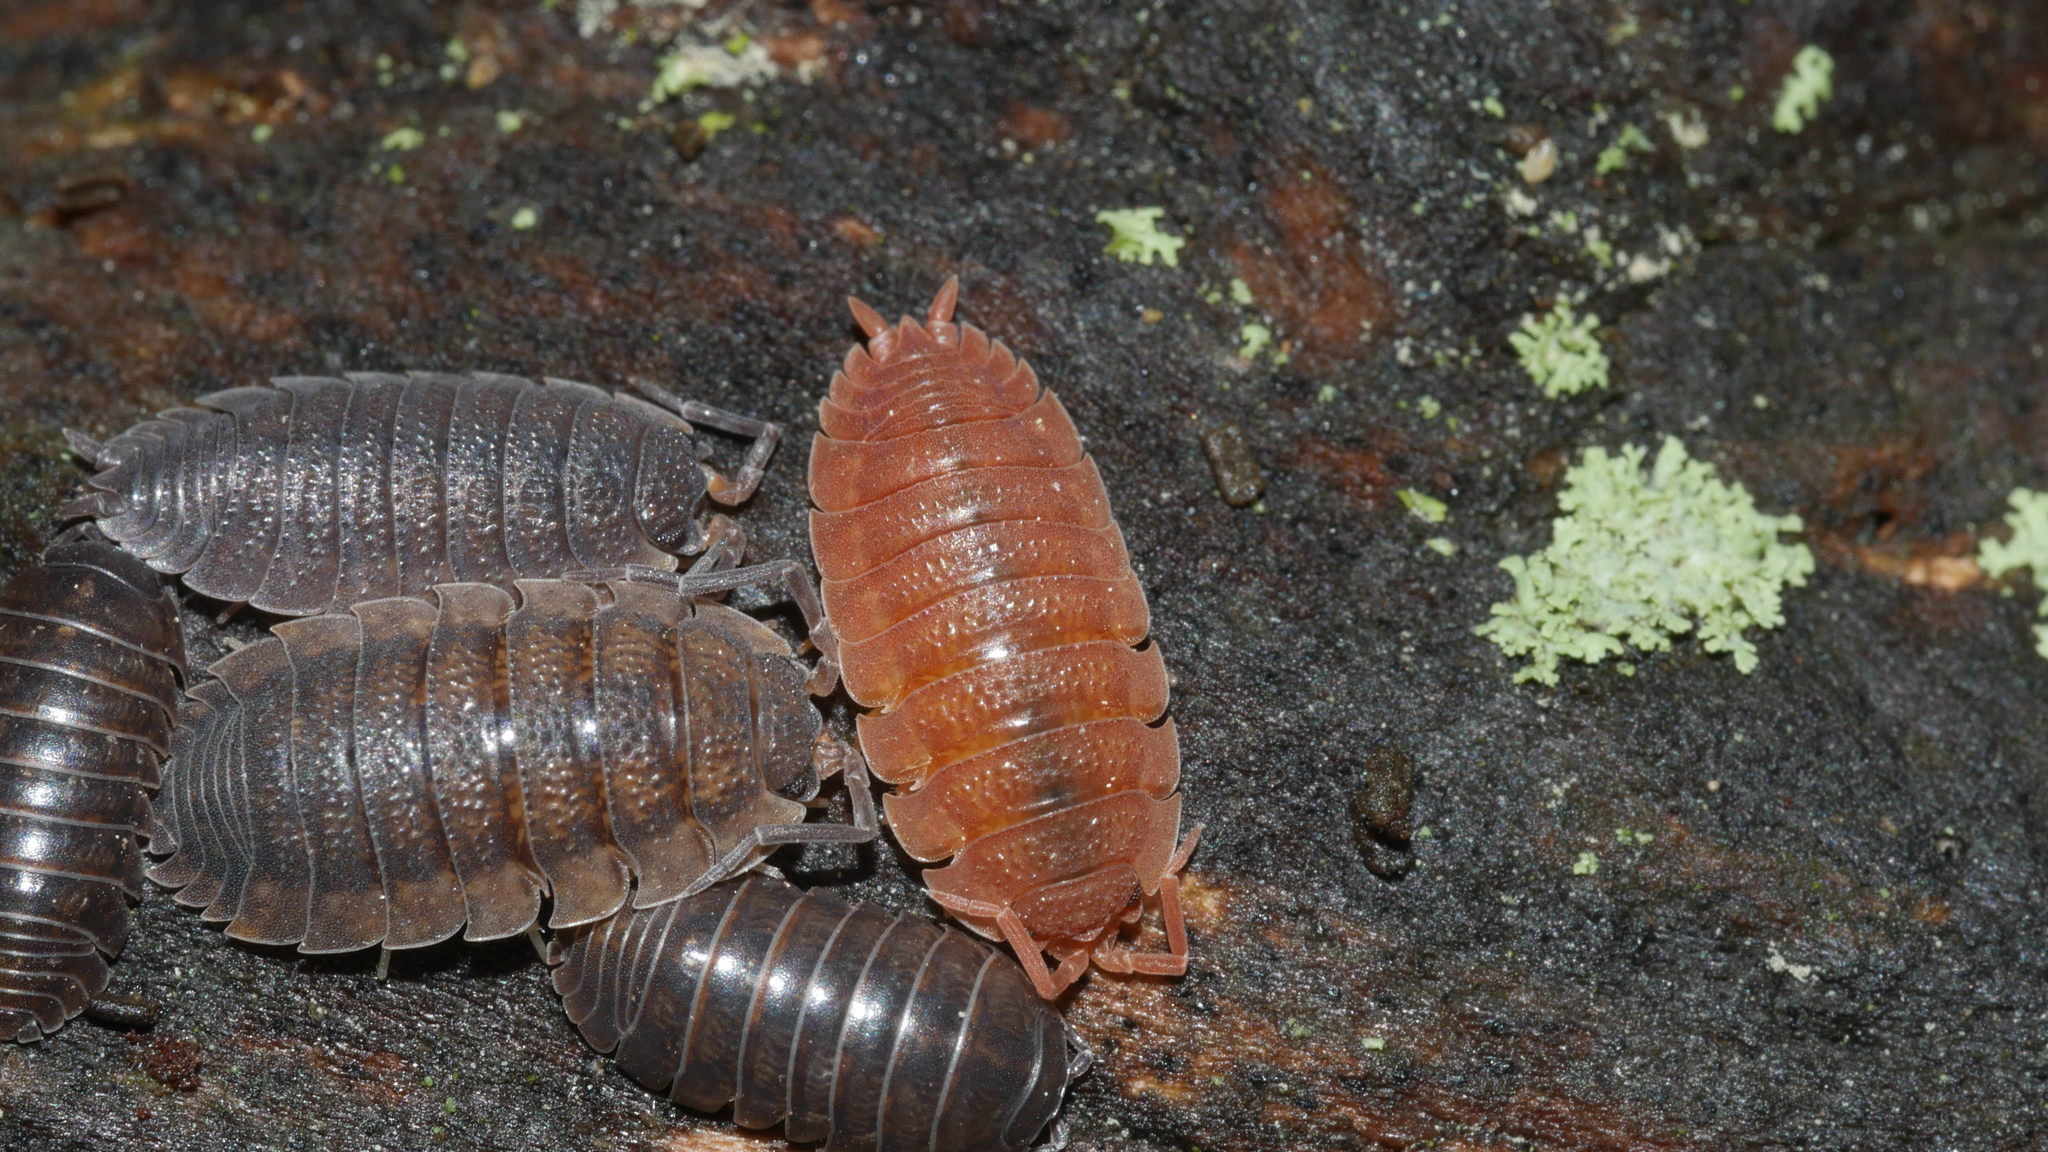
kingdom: Animalia
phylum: Arthropoda
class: Malacostraca
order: Isopoda
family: Porcellionidae
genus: Porcellio
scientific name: Porcellio scaber
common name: Common rough woodlouse
